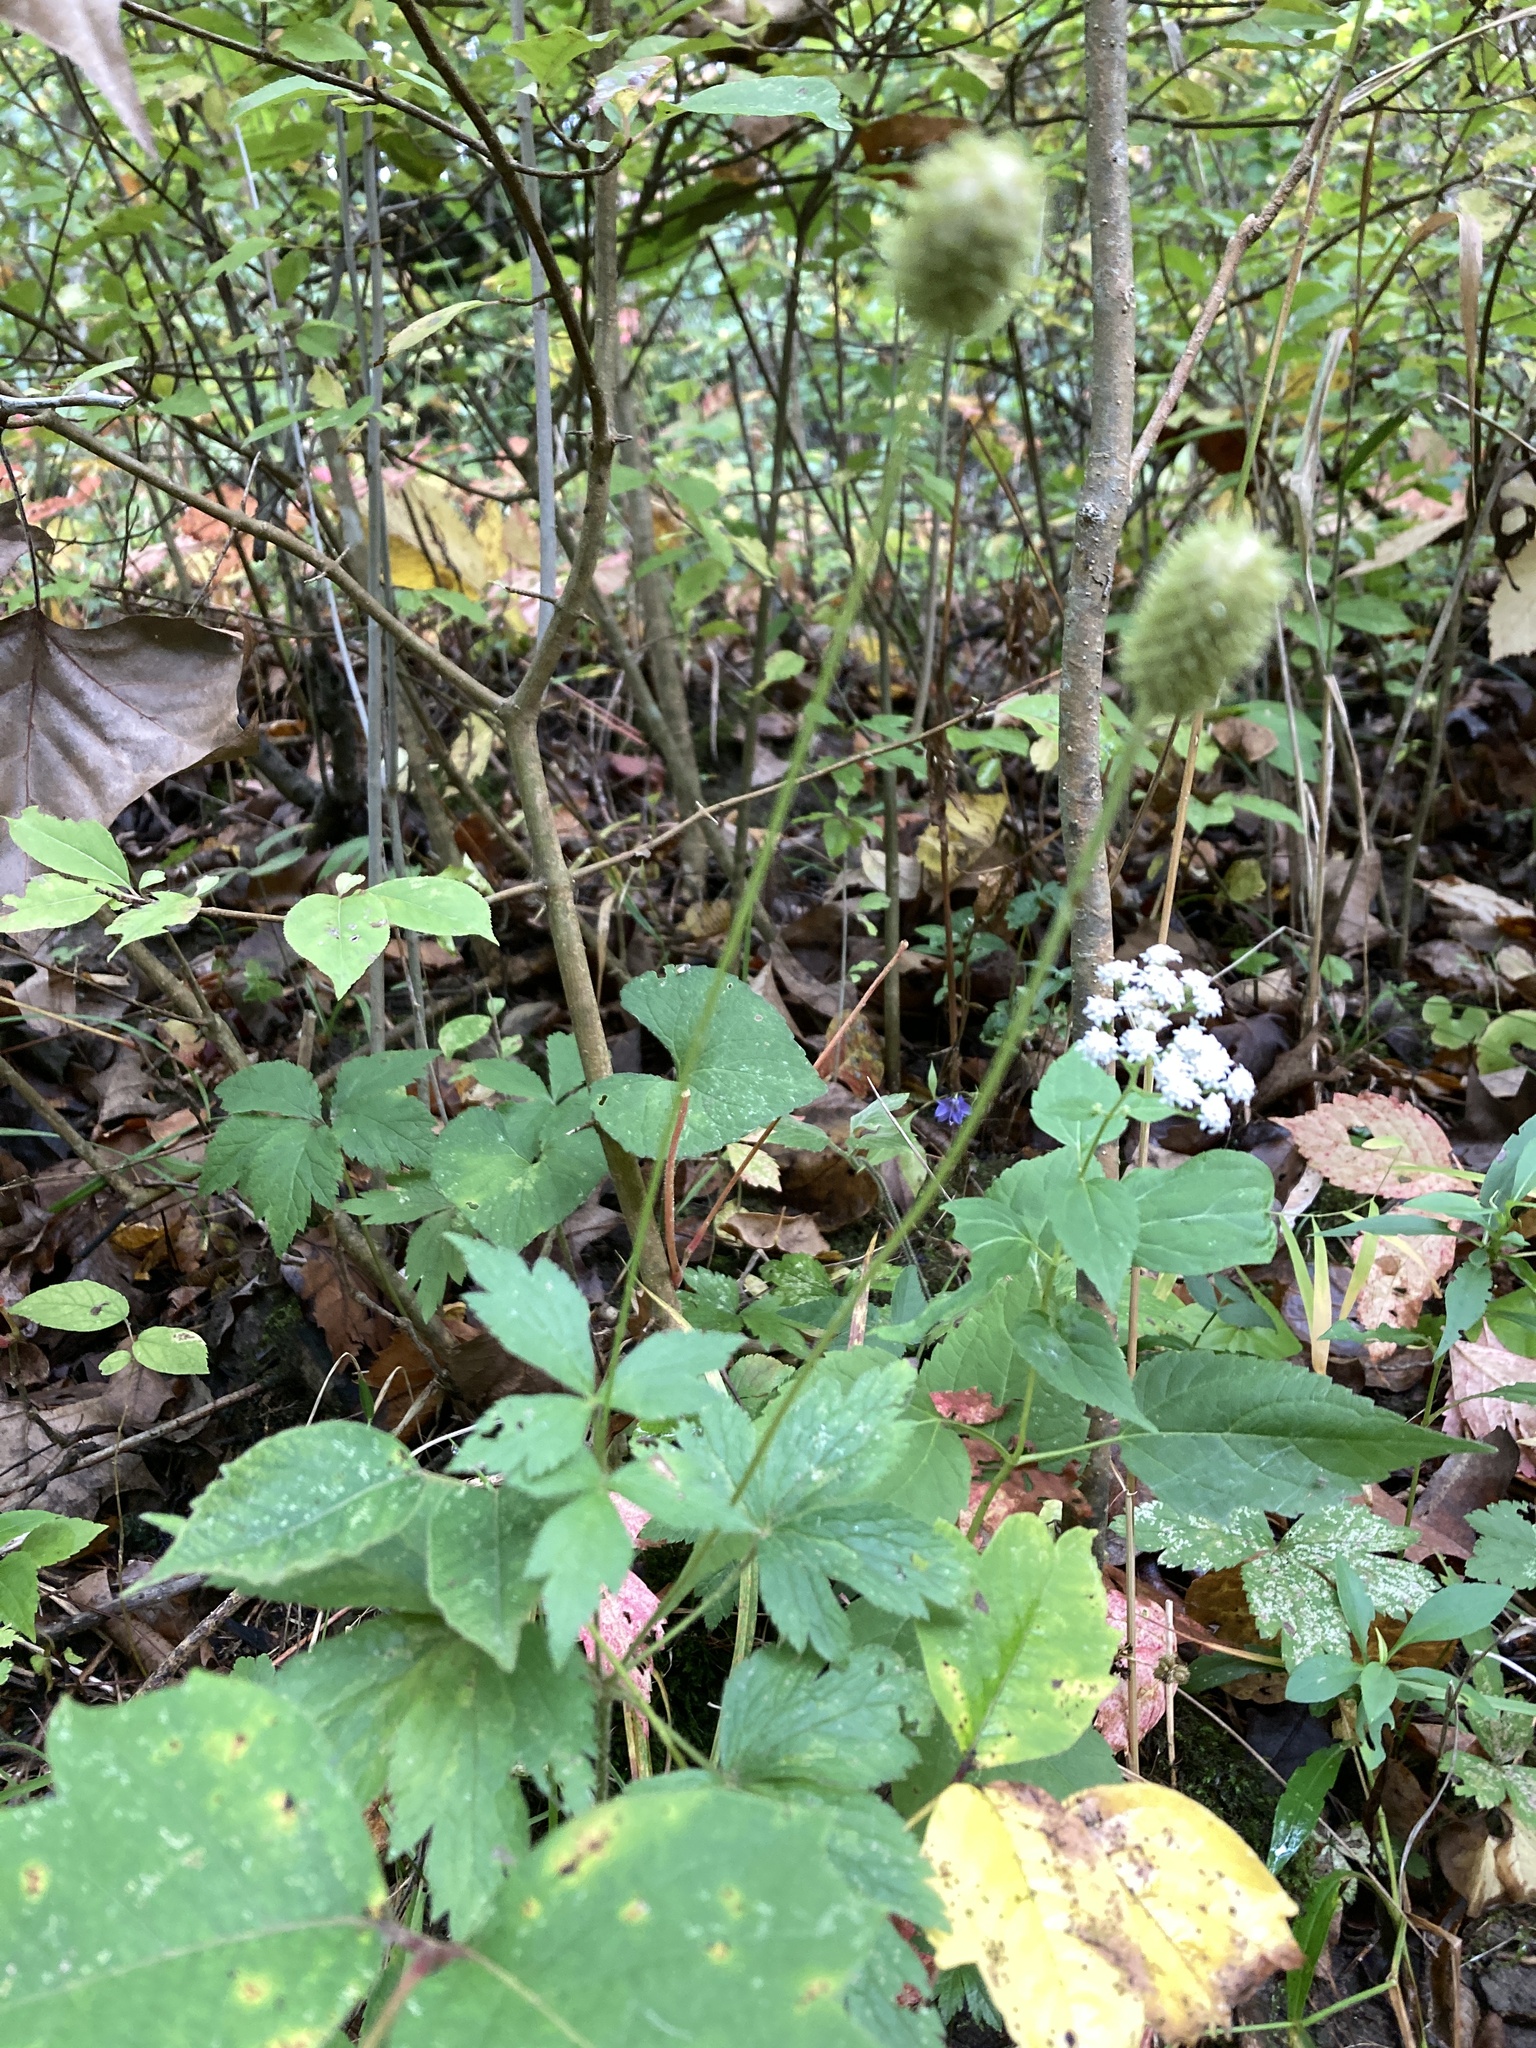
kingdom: Plantae
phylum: Tracheophyta
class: Magnoliopsida
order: Ranunculales
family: Ranunculaceae
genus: Anemone
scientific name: Anemone virginiana
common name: Tall anemone
